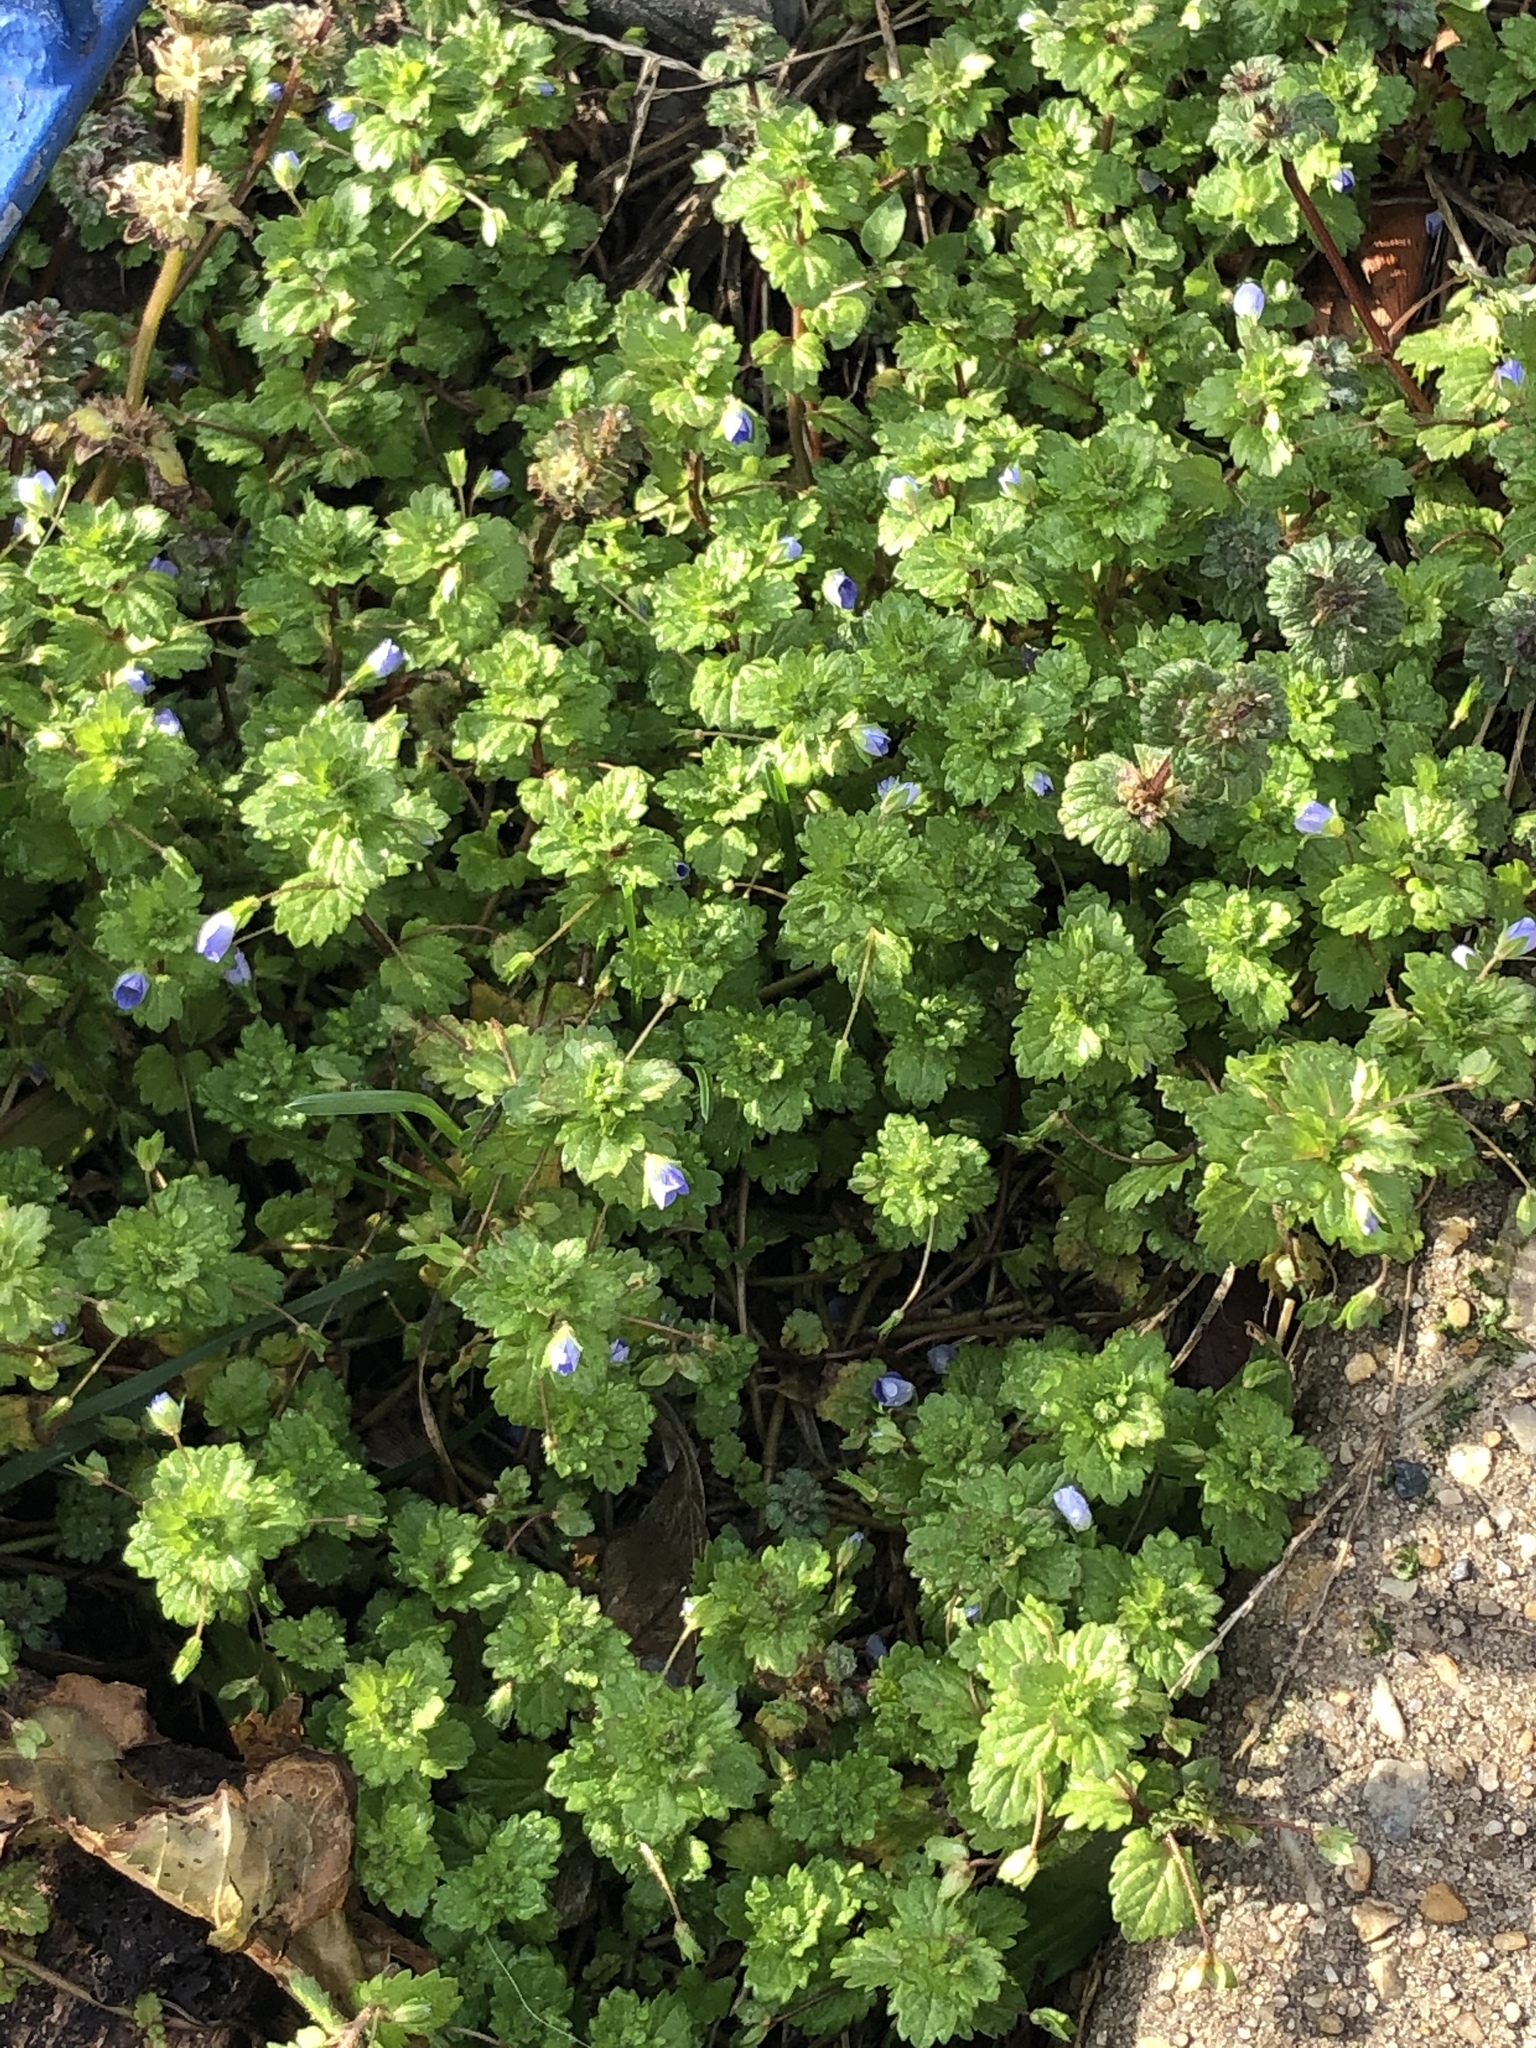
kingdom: Plantae
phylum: Tracheophyta
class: Magnoliopsida
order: Lamiales
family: Plantaginaceae
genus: Veronica
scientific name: Veronica persica
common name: Common field-speedwell
